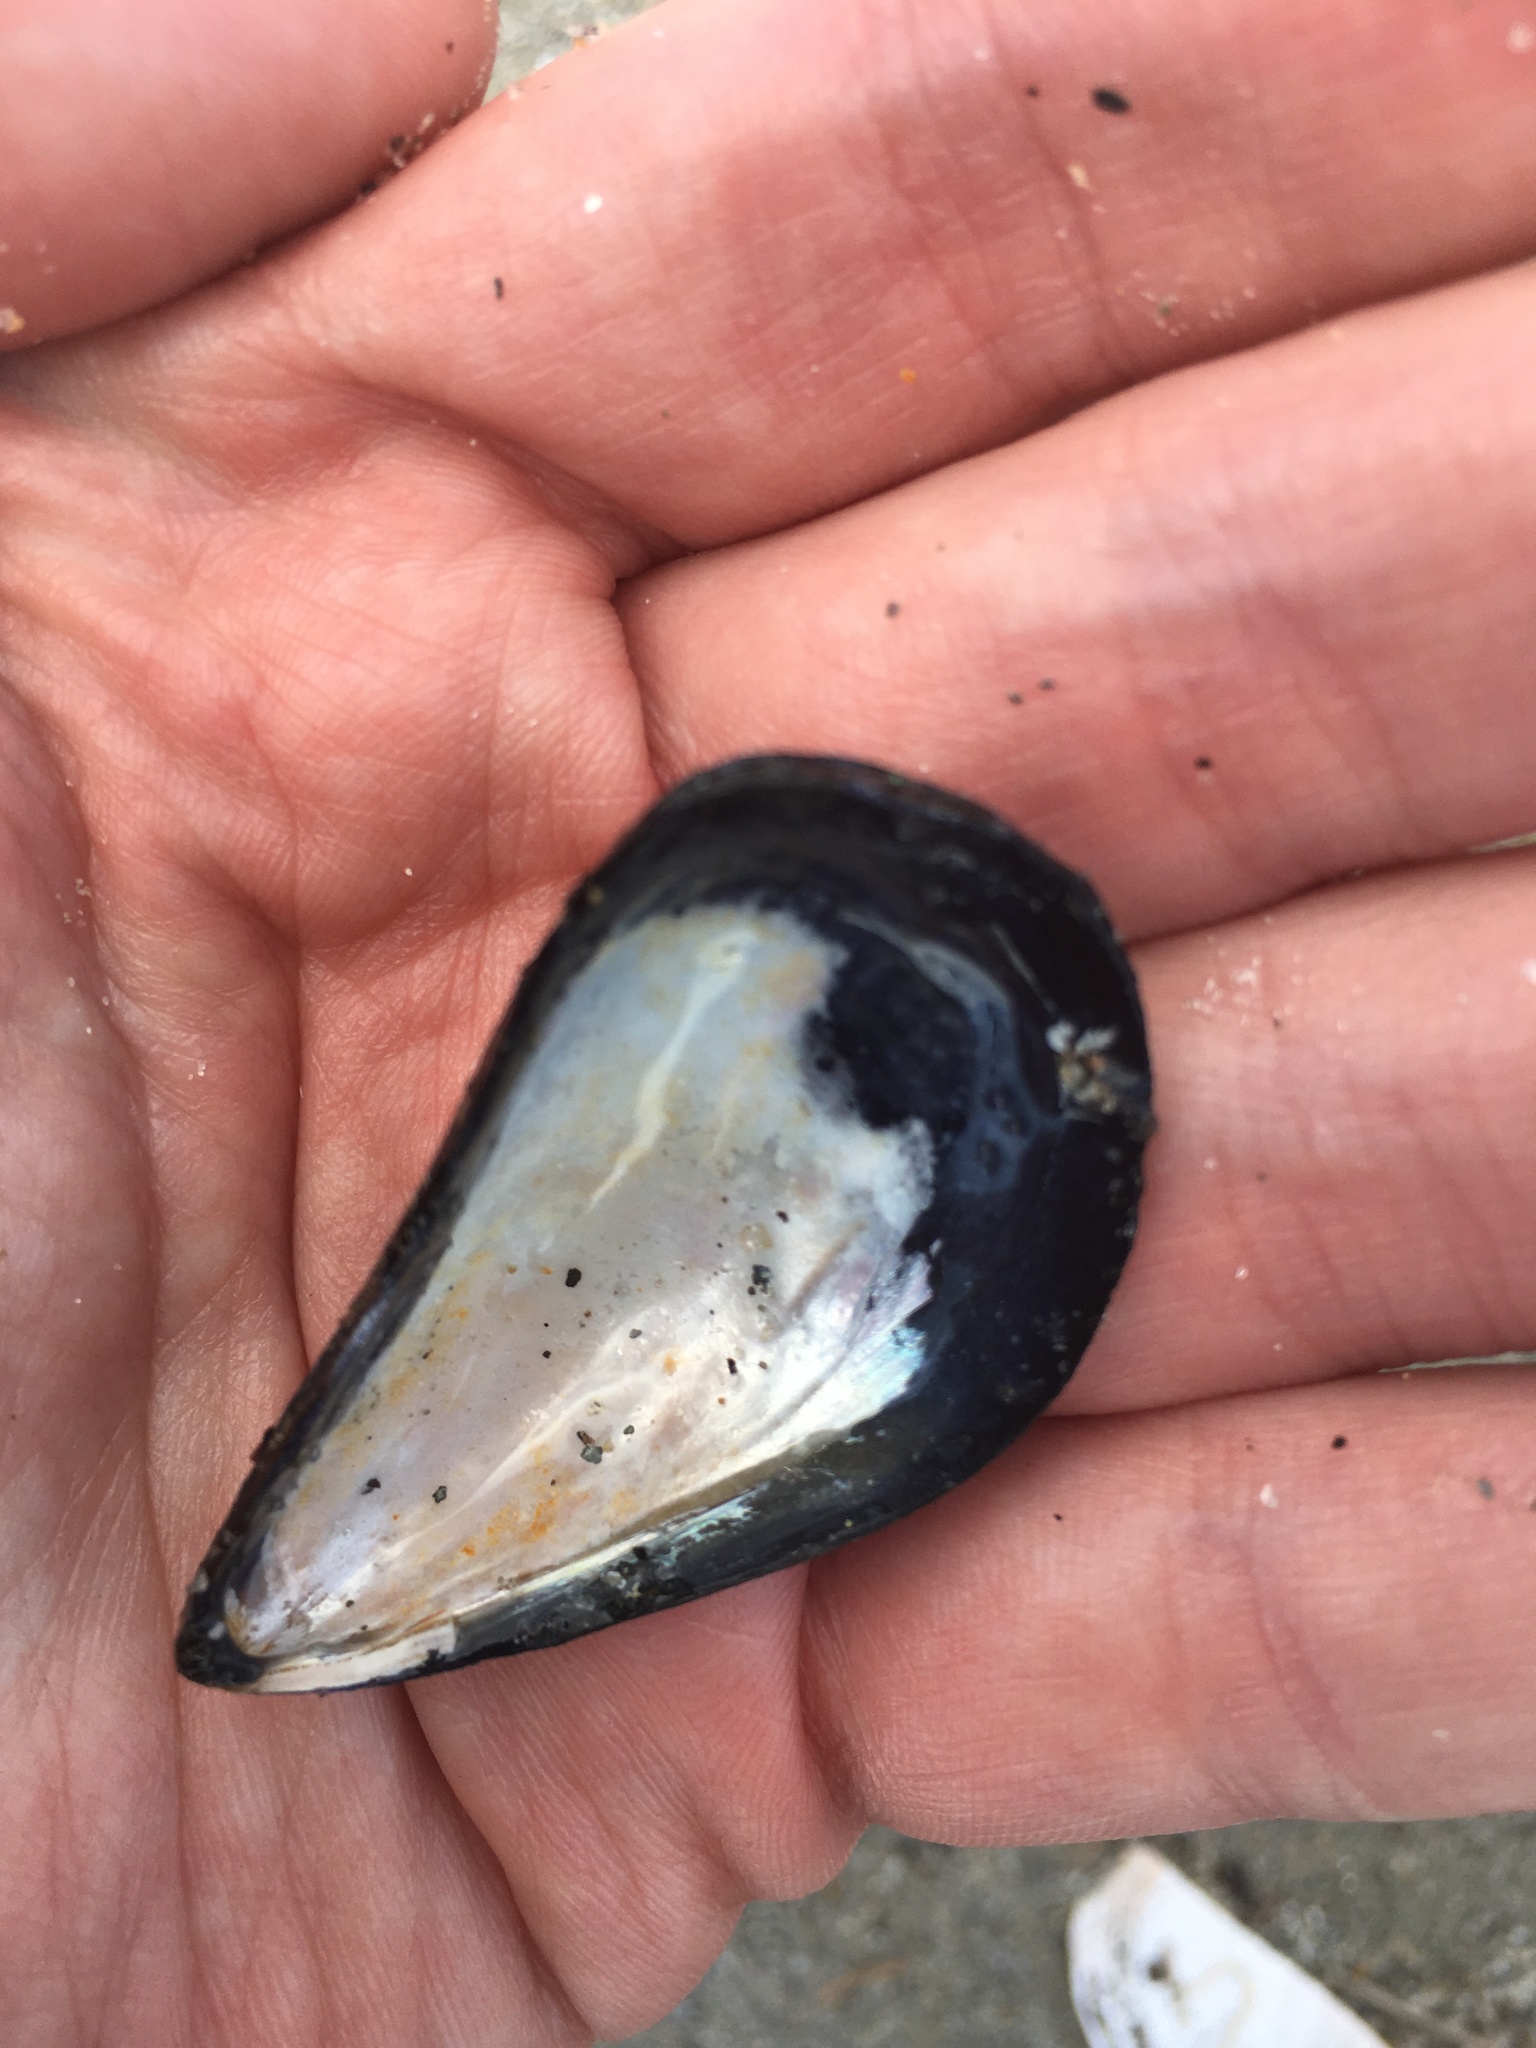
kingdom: Animalia
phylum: Mollusca
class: Bivalvia
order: Mytilida
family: Mytilidae
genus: Mytilus
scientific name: Mytilus edulis
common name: Blue mussel
